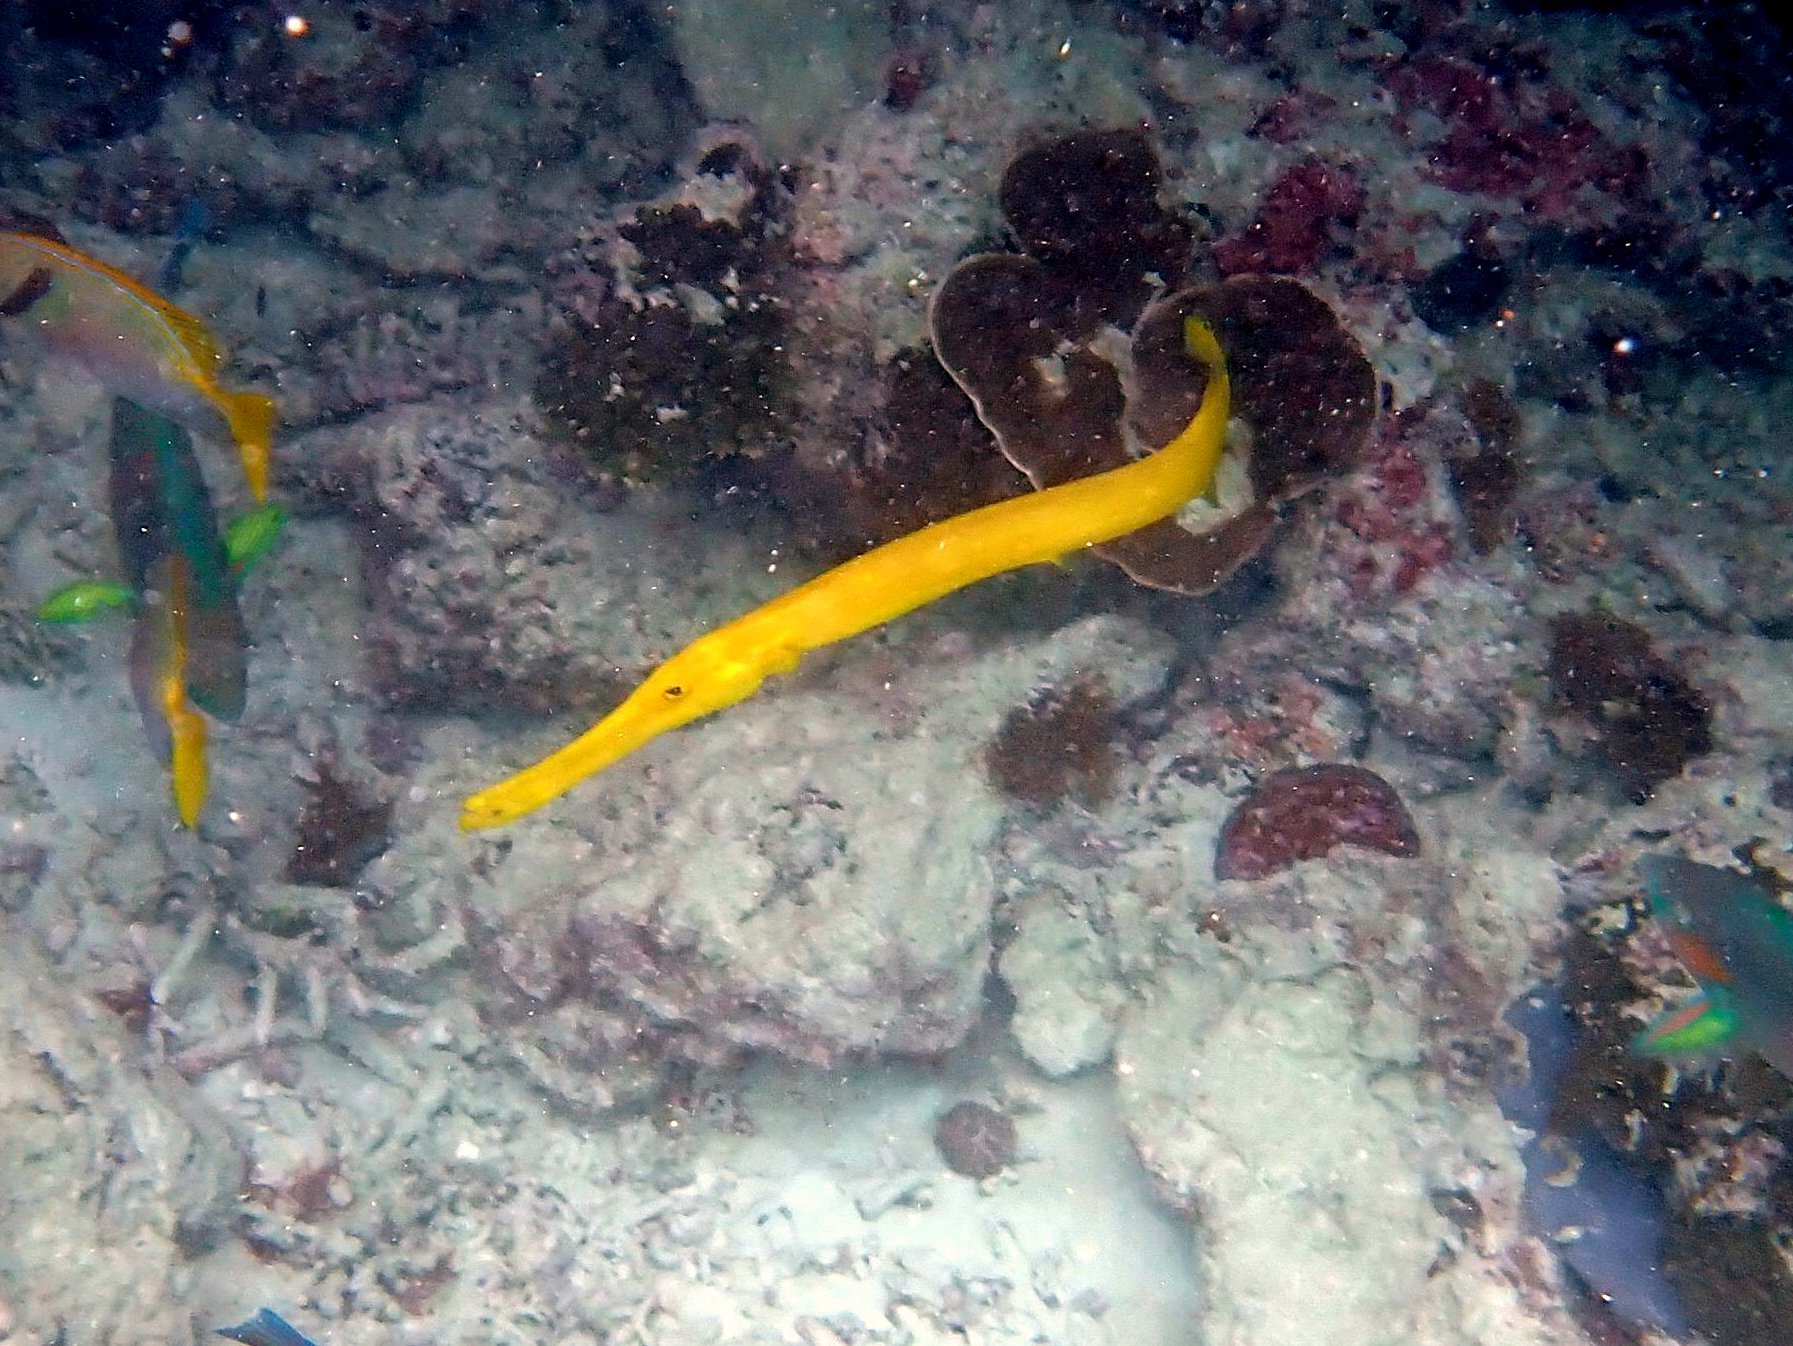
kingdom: Animalia
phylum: Chordata
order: Syngnathiformes
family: Aulostomidae
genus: Aulostomus
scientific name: Aulostomus chinensis
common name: Chinese trumpetfish
